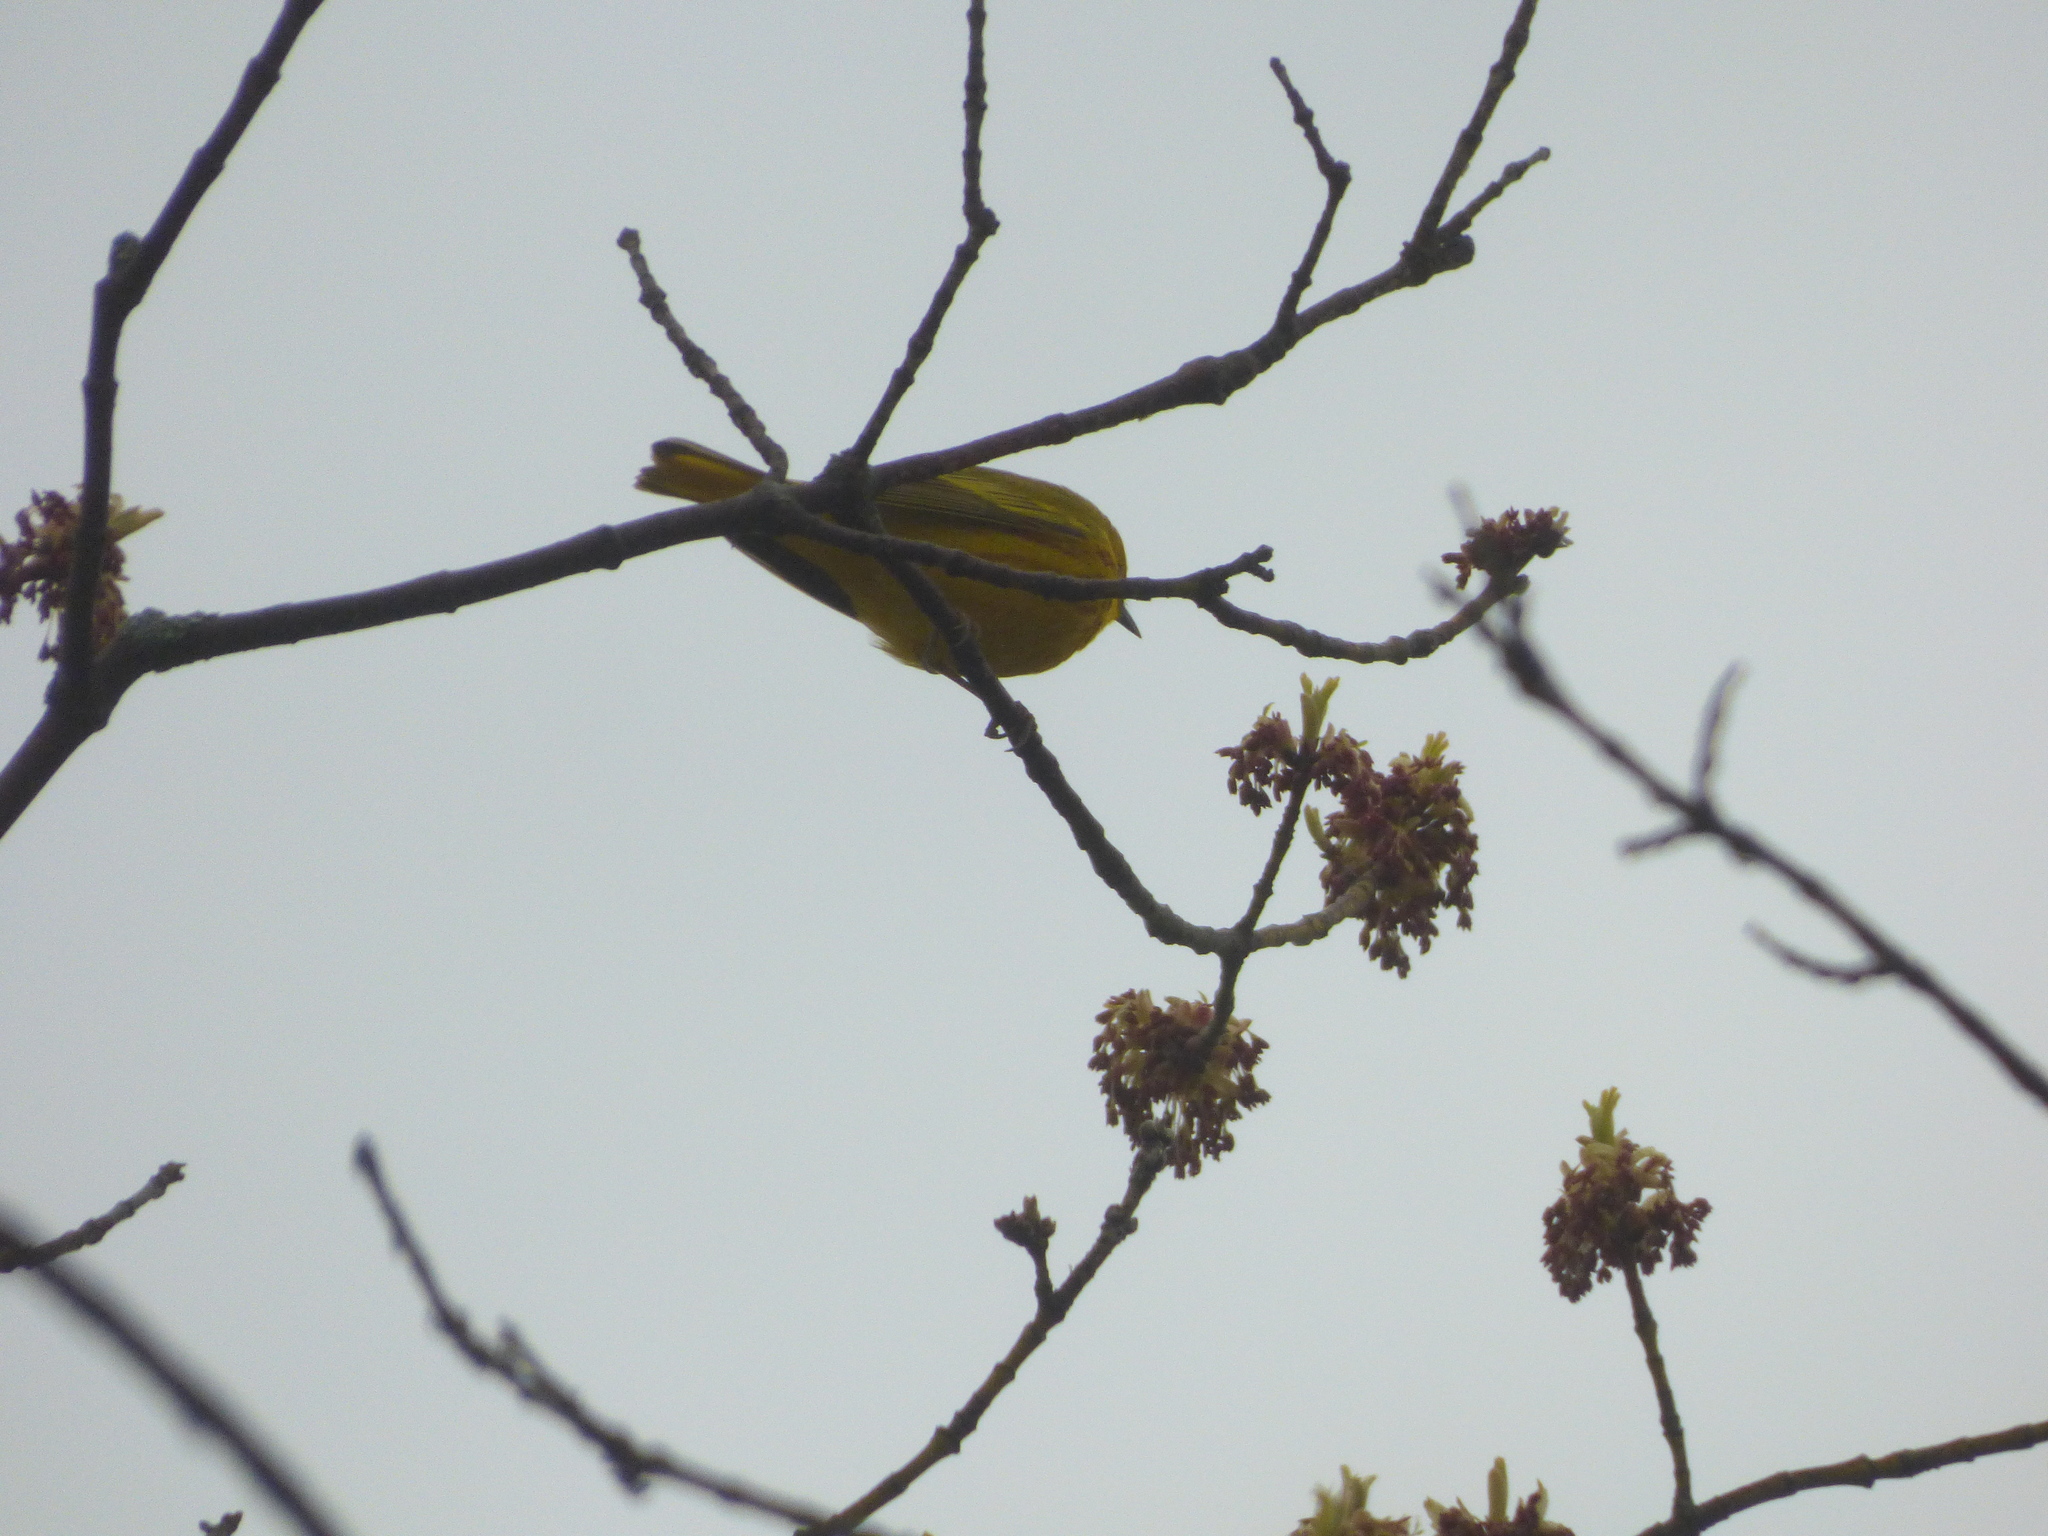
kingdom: Animalia
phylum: Chordata
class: Aves
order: Passeriformes
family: Parulidae
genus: Setophaga
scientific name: Setophaga petechia
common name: Yellow warbler
